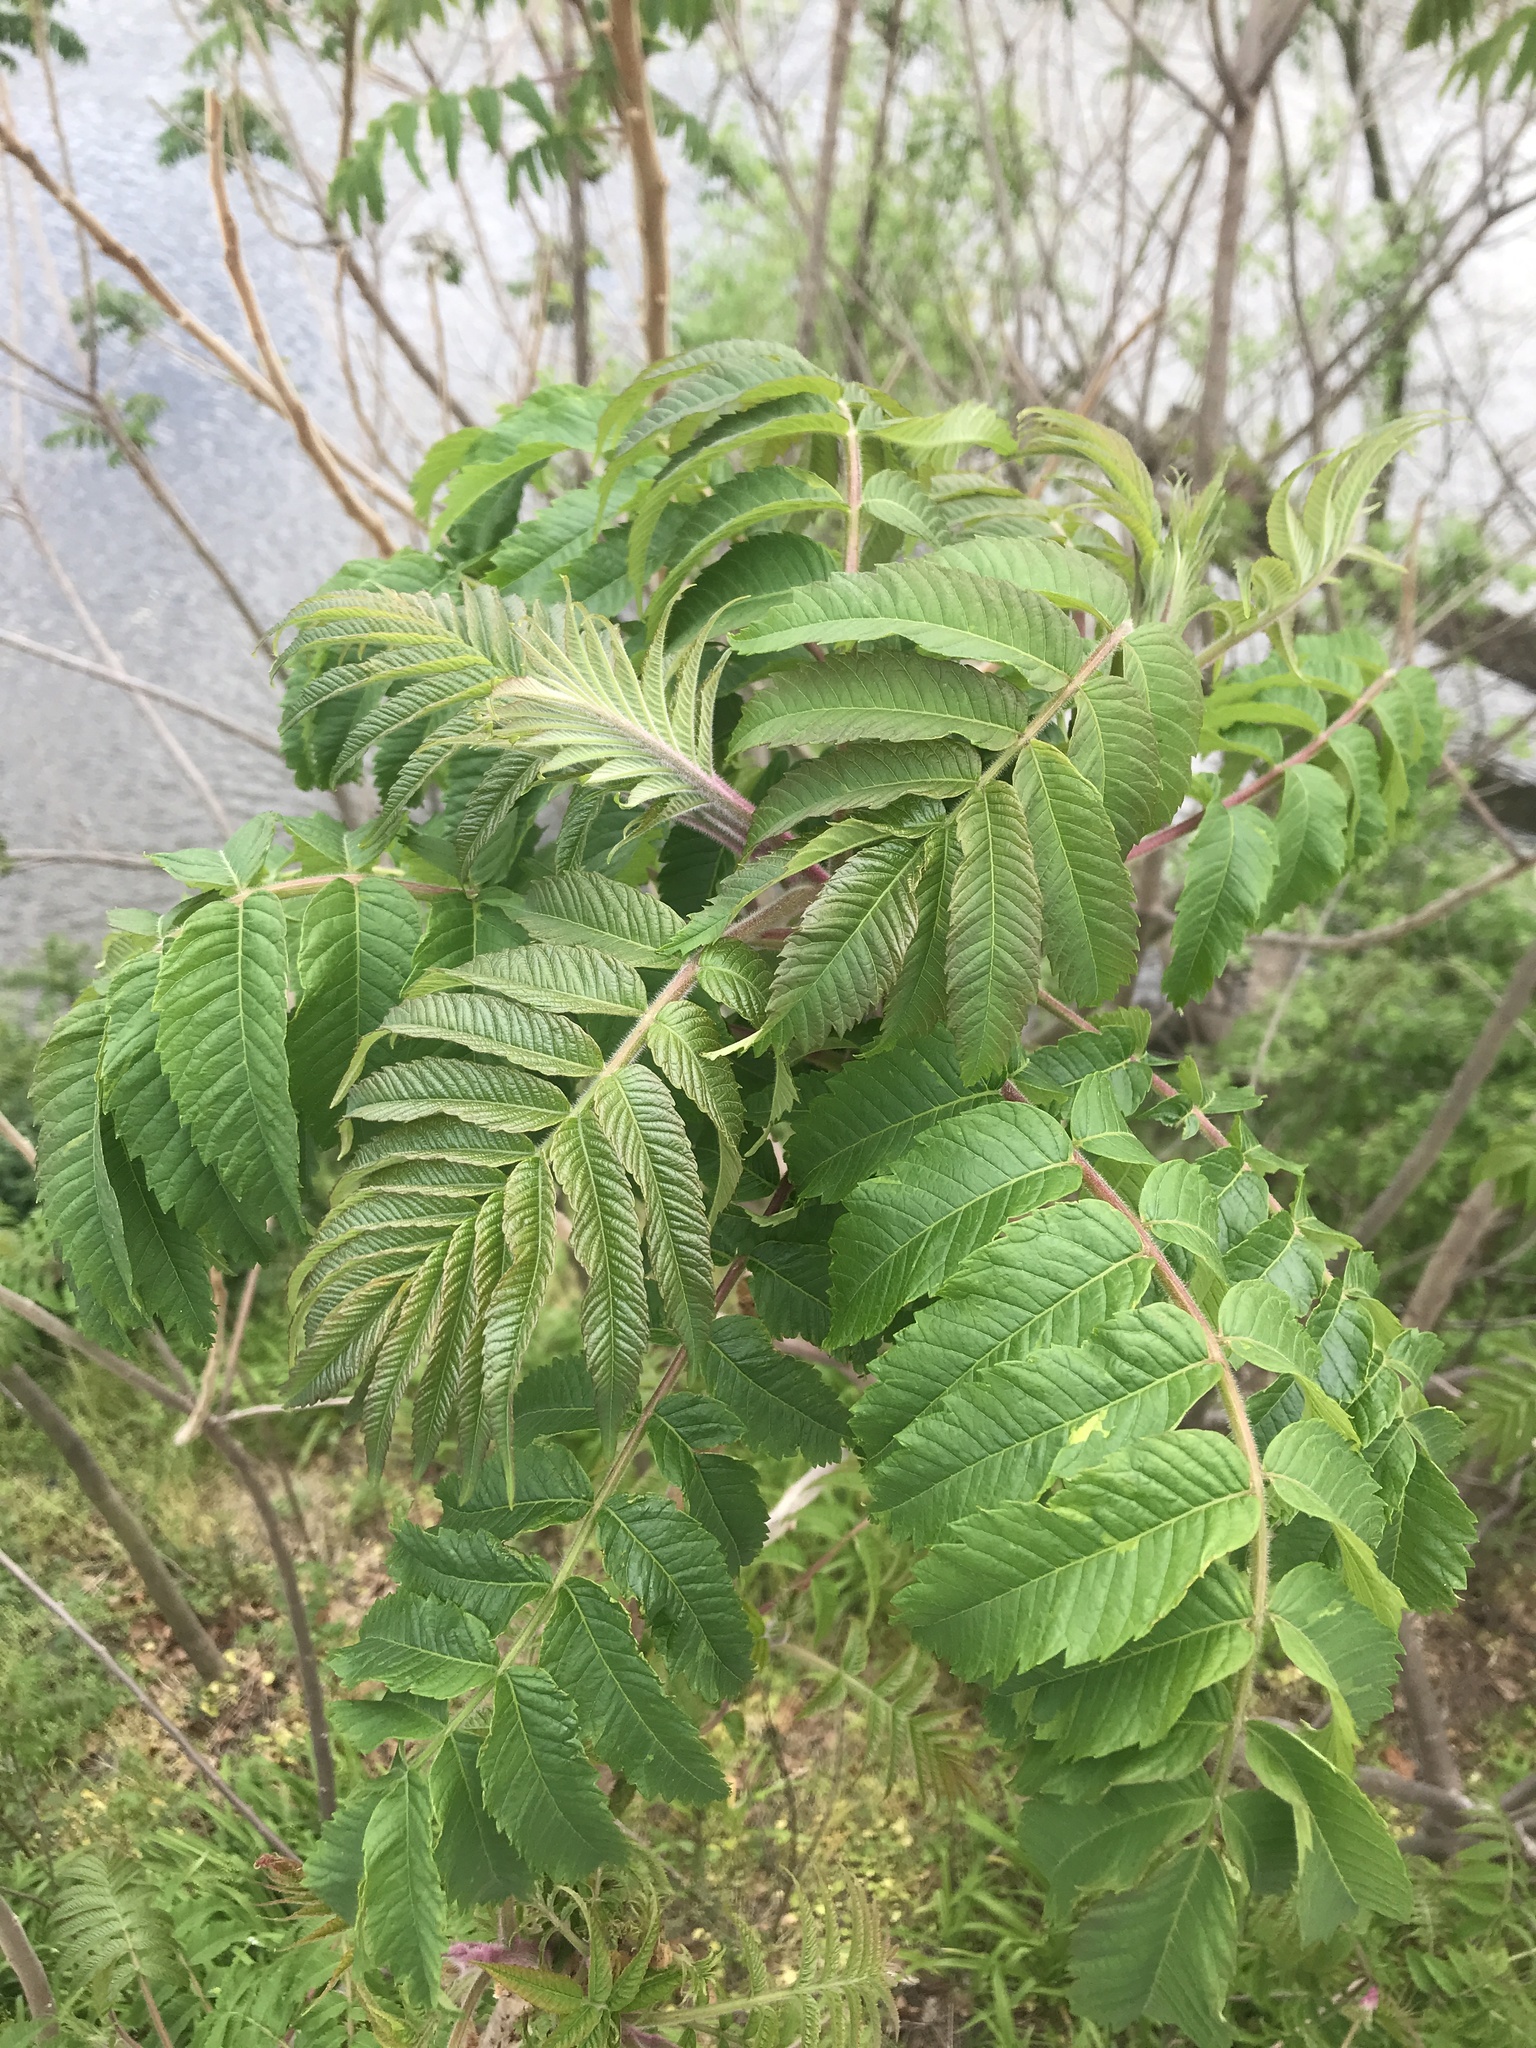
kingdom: Plantae
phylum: Tracheophyta
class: Magnoliopsida
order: Sapindales
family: Anacardiaceae
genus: Rhus
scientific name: Rhus typhina
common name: Staghorn sumac
